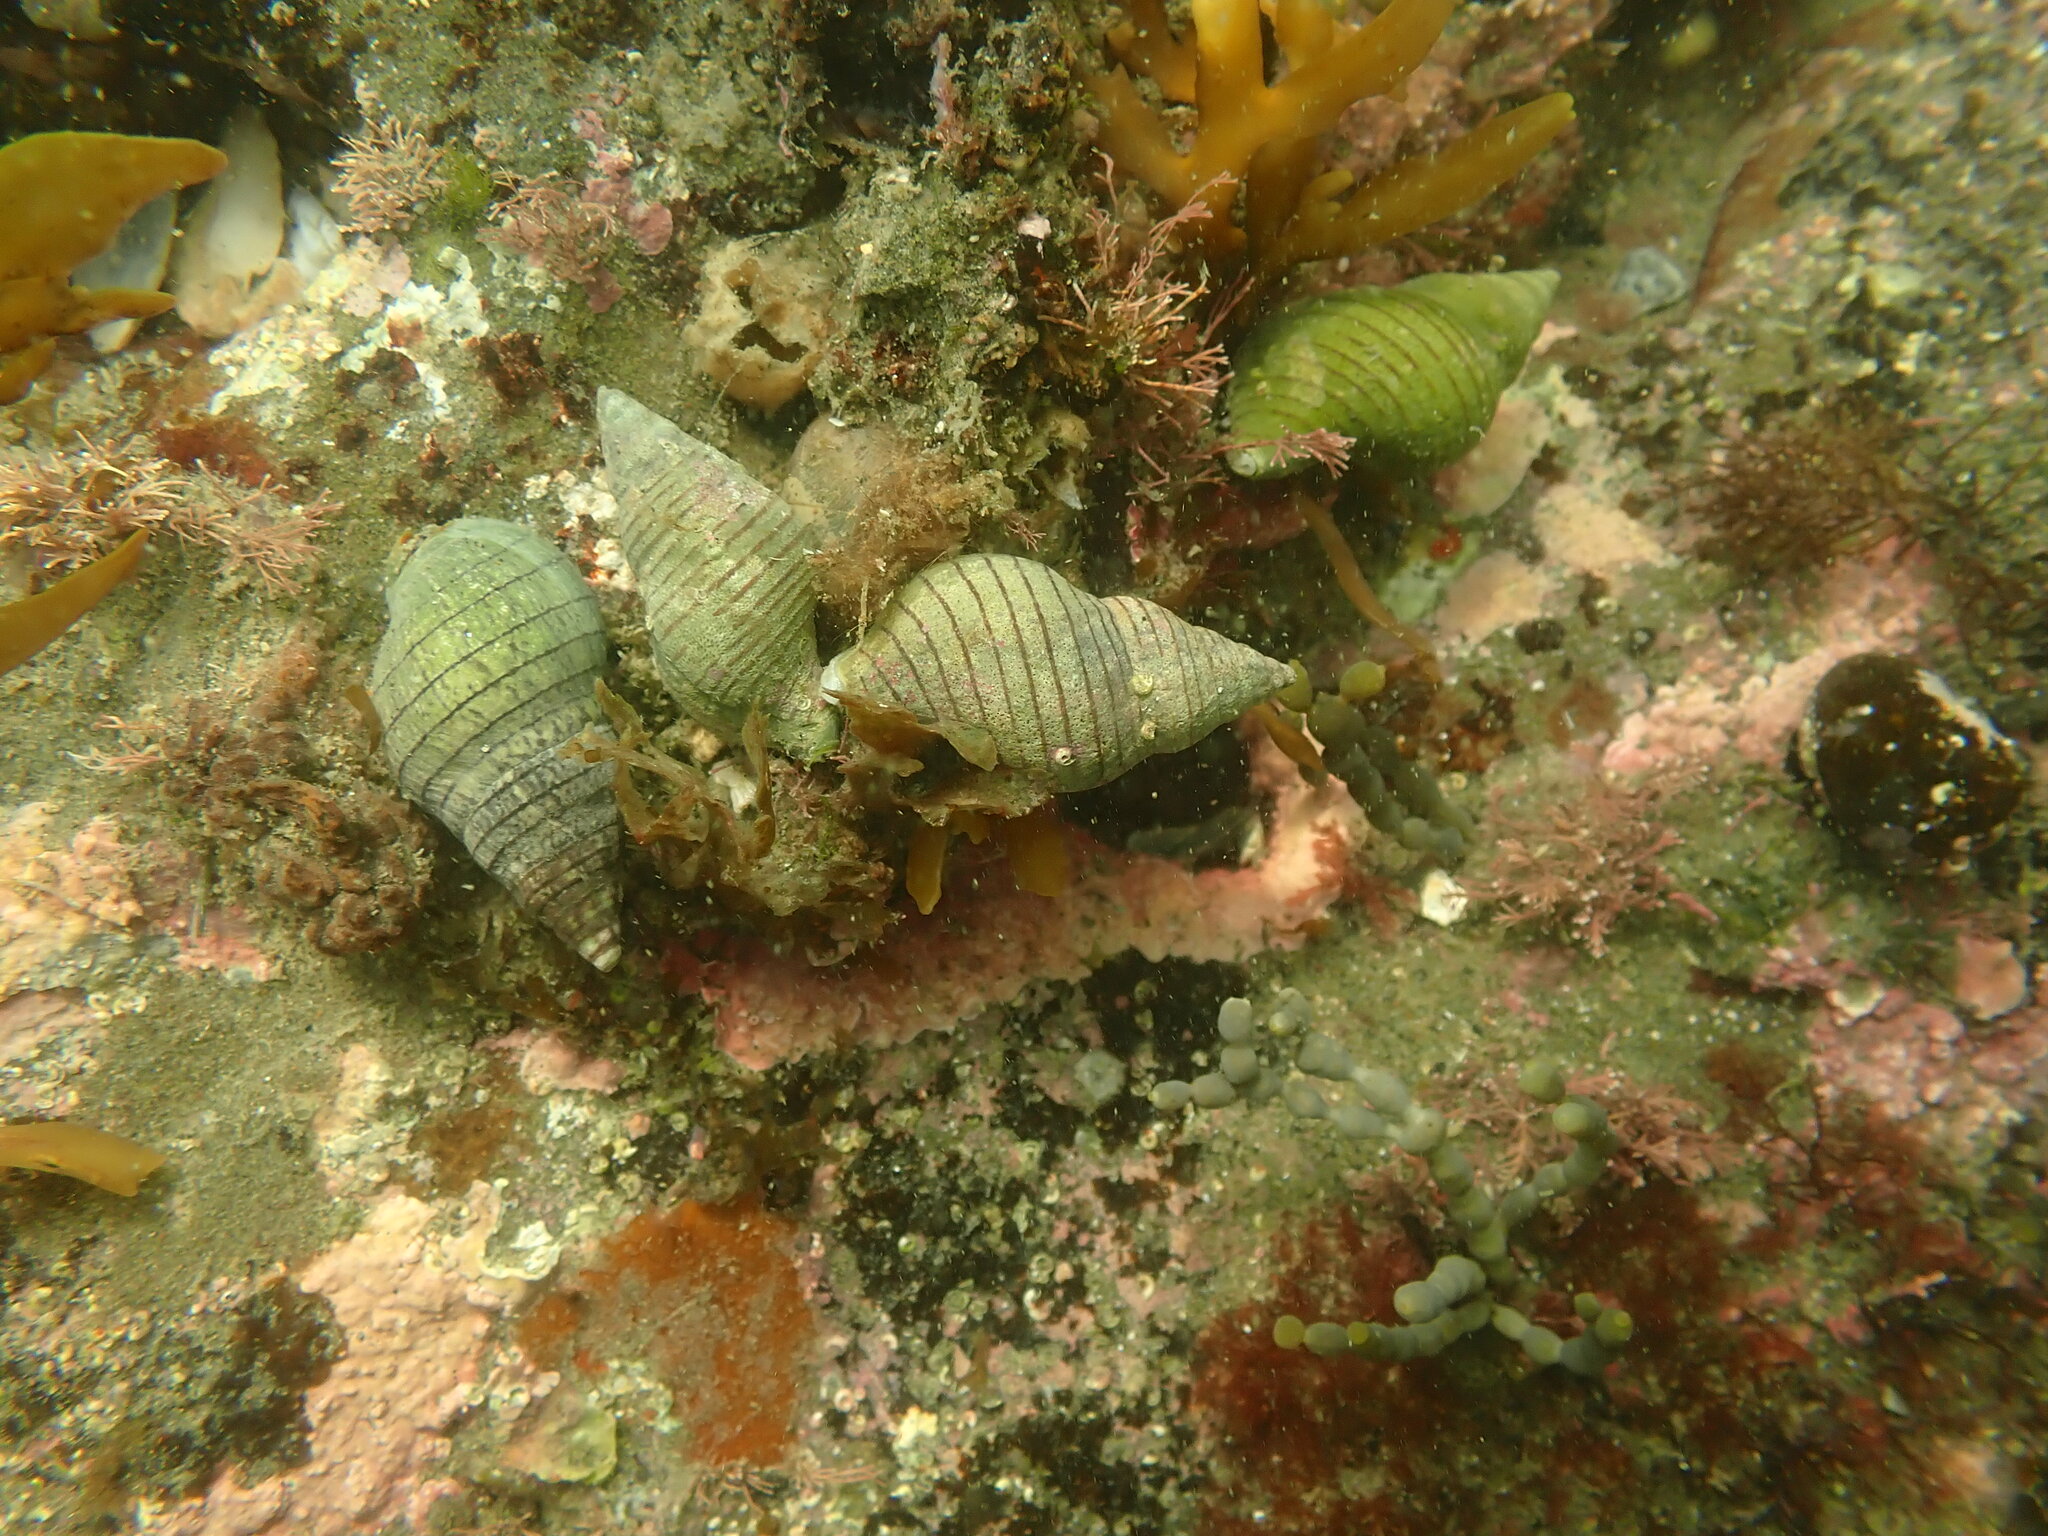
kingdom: Animalia
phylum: Mollusca
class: Gastropoda
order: Neogastropoda
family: Tudiclidae
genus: Buccinulum
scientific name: Buccinulum linea
